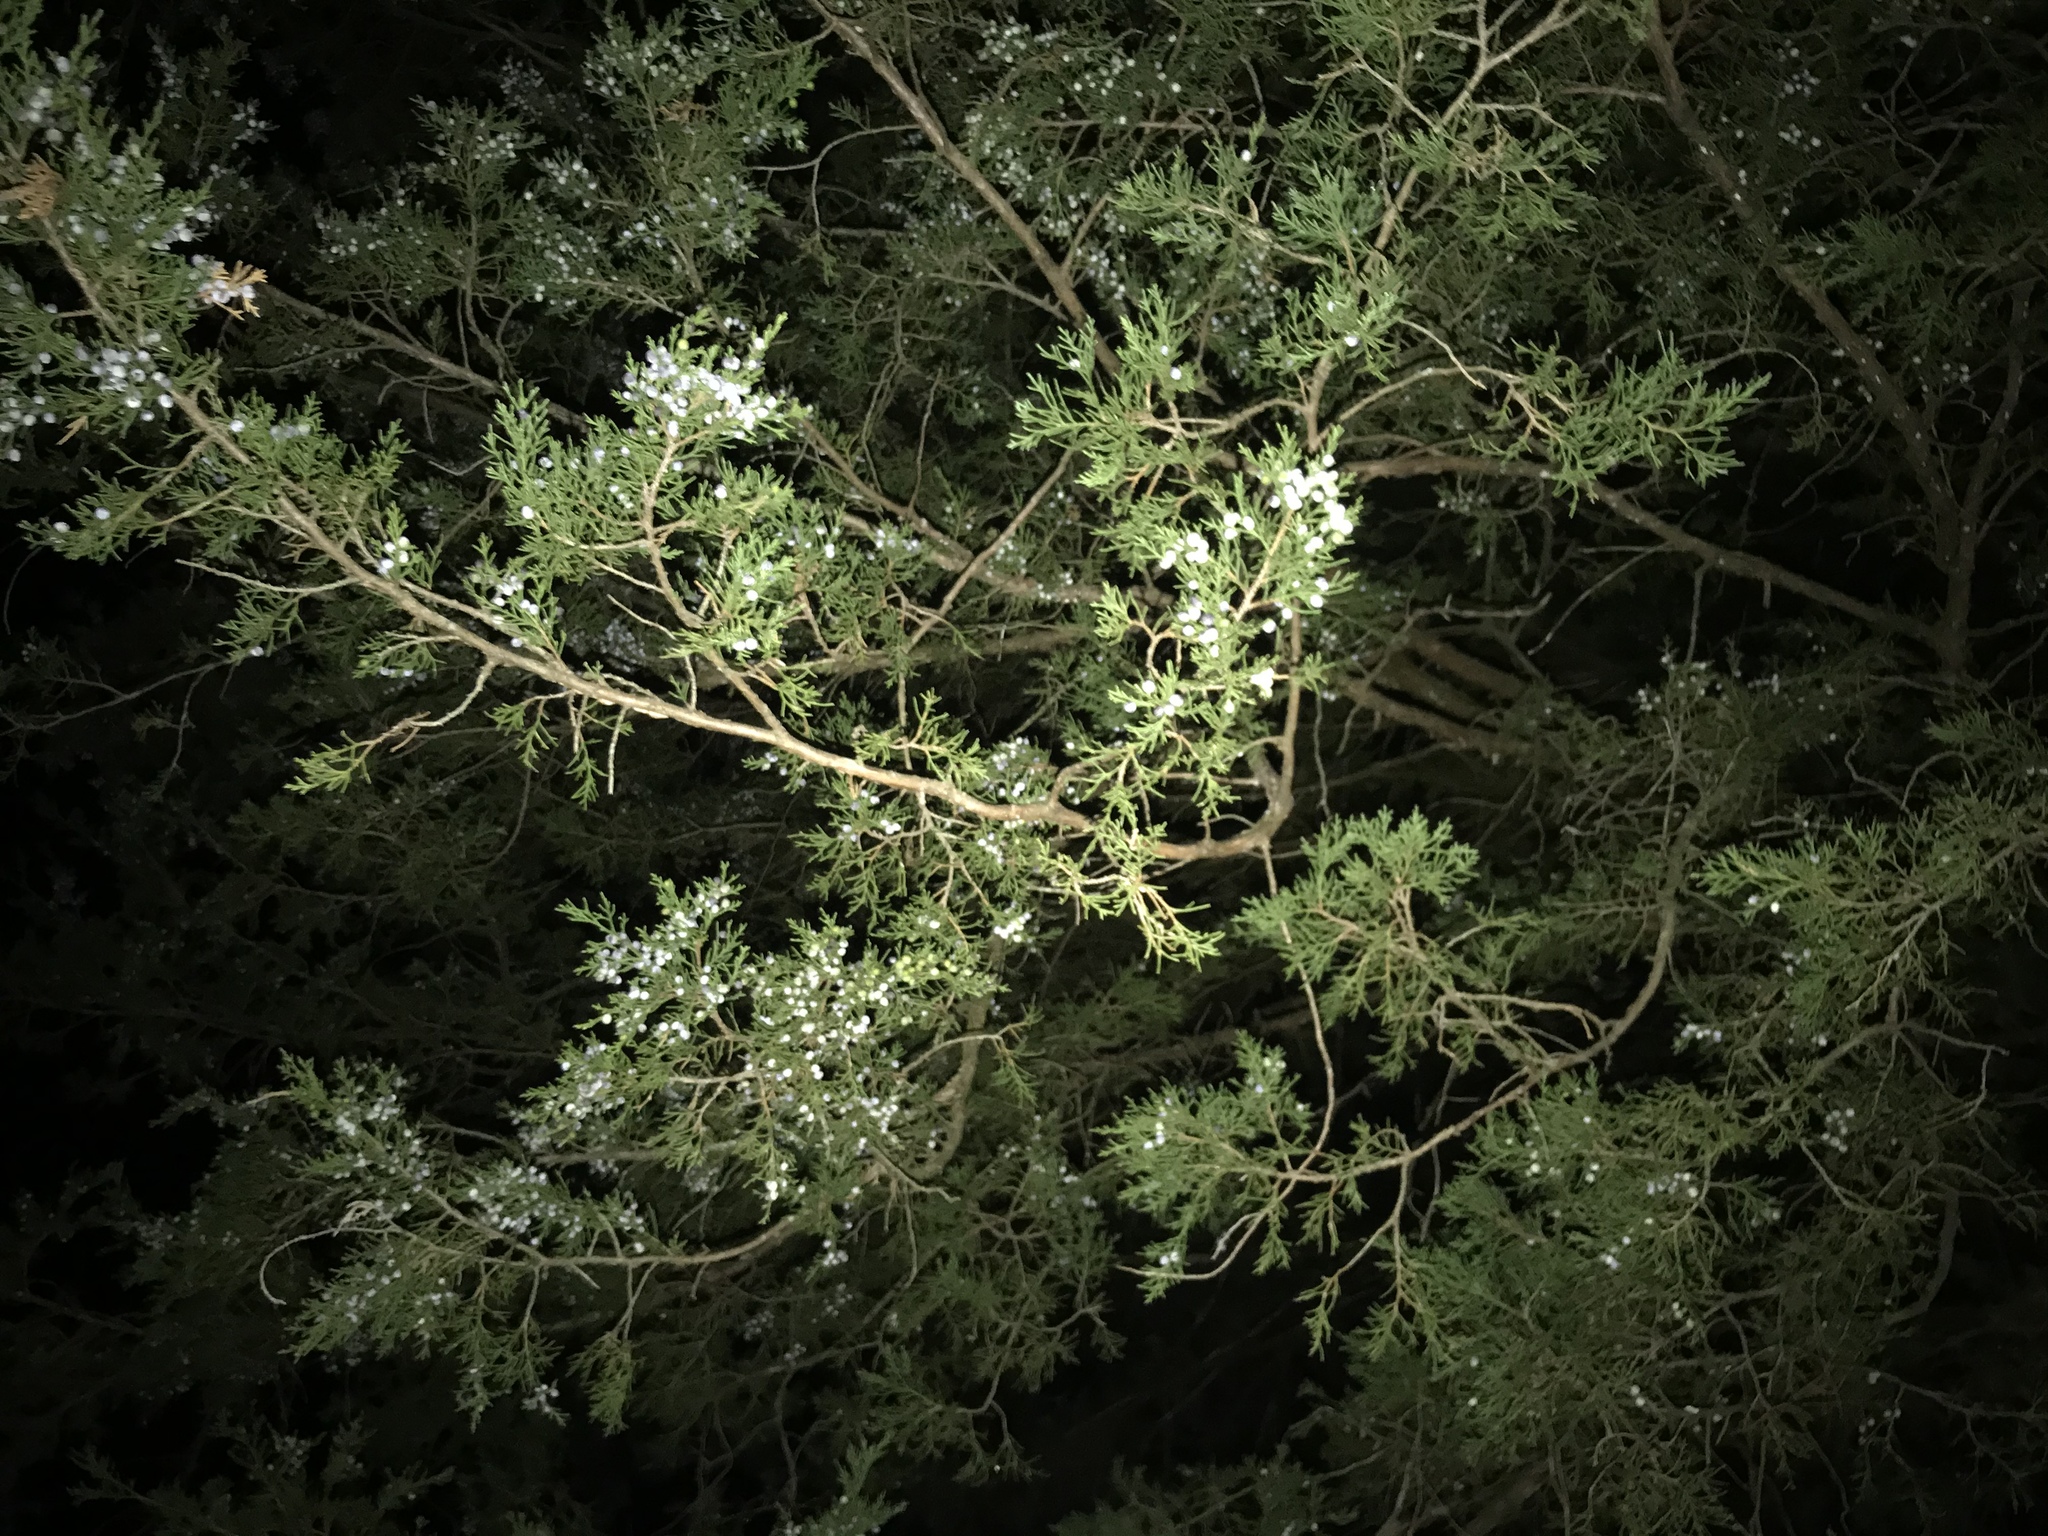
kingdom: Plantae
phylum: Tracheophyta
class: Pinopsida
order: Pinales
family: Cupressaceae
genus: Juniperus
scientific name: Juniperus virginiana
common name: Red juniper
